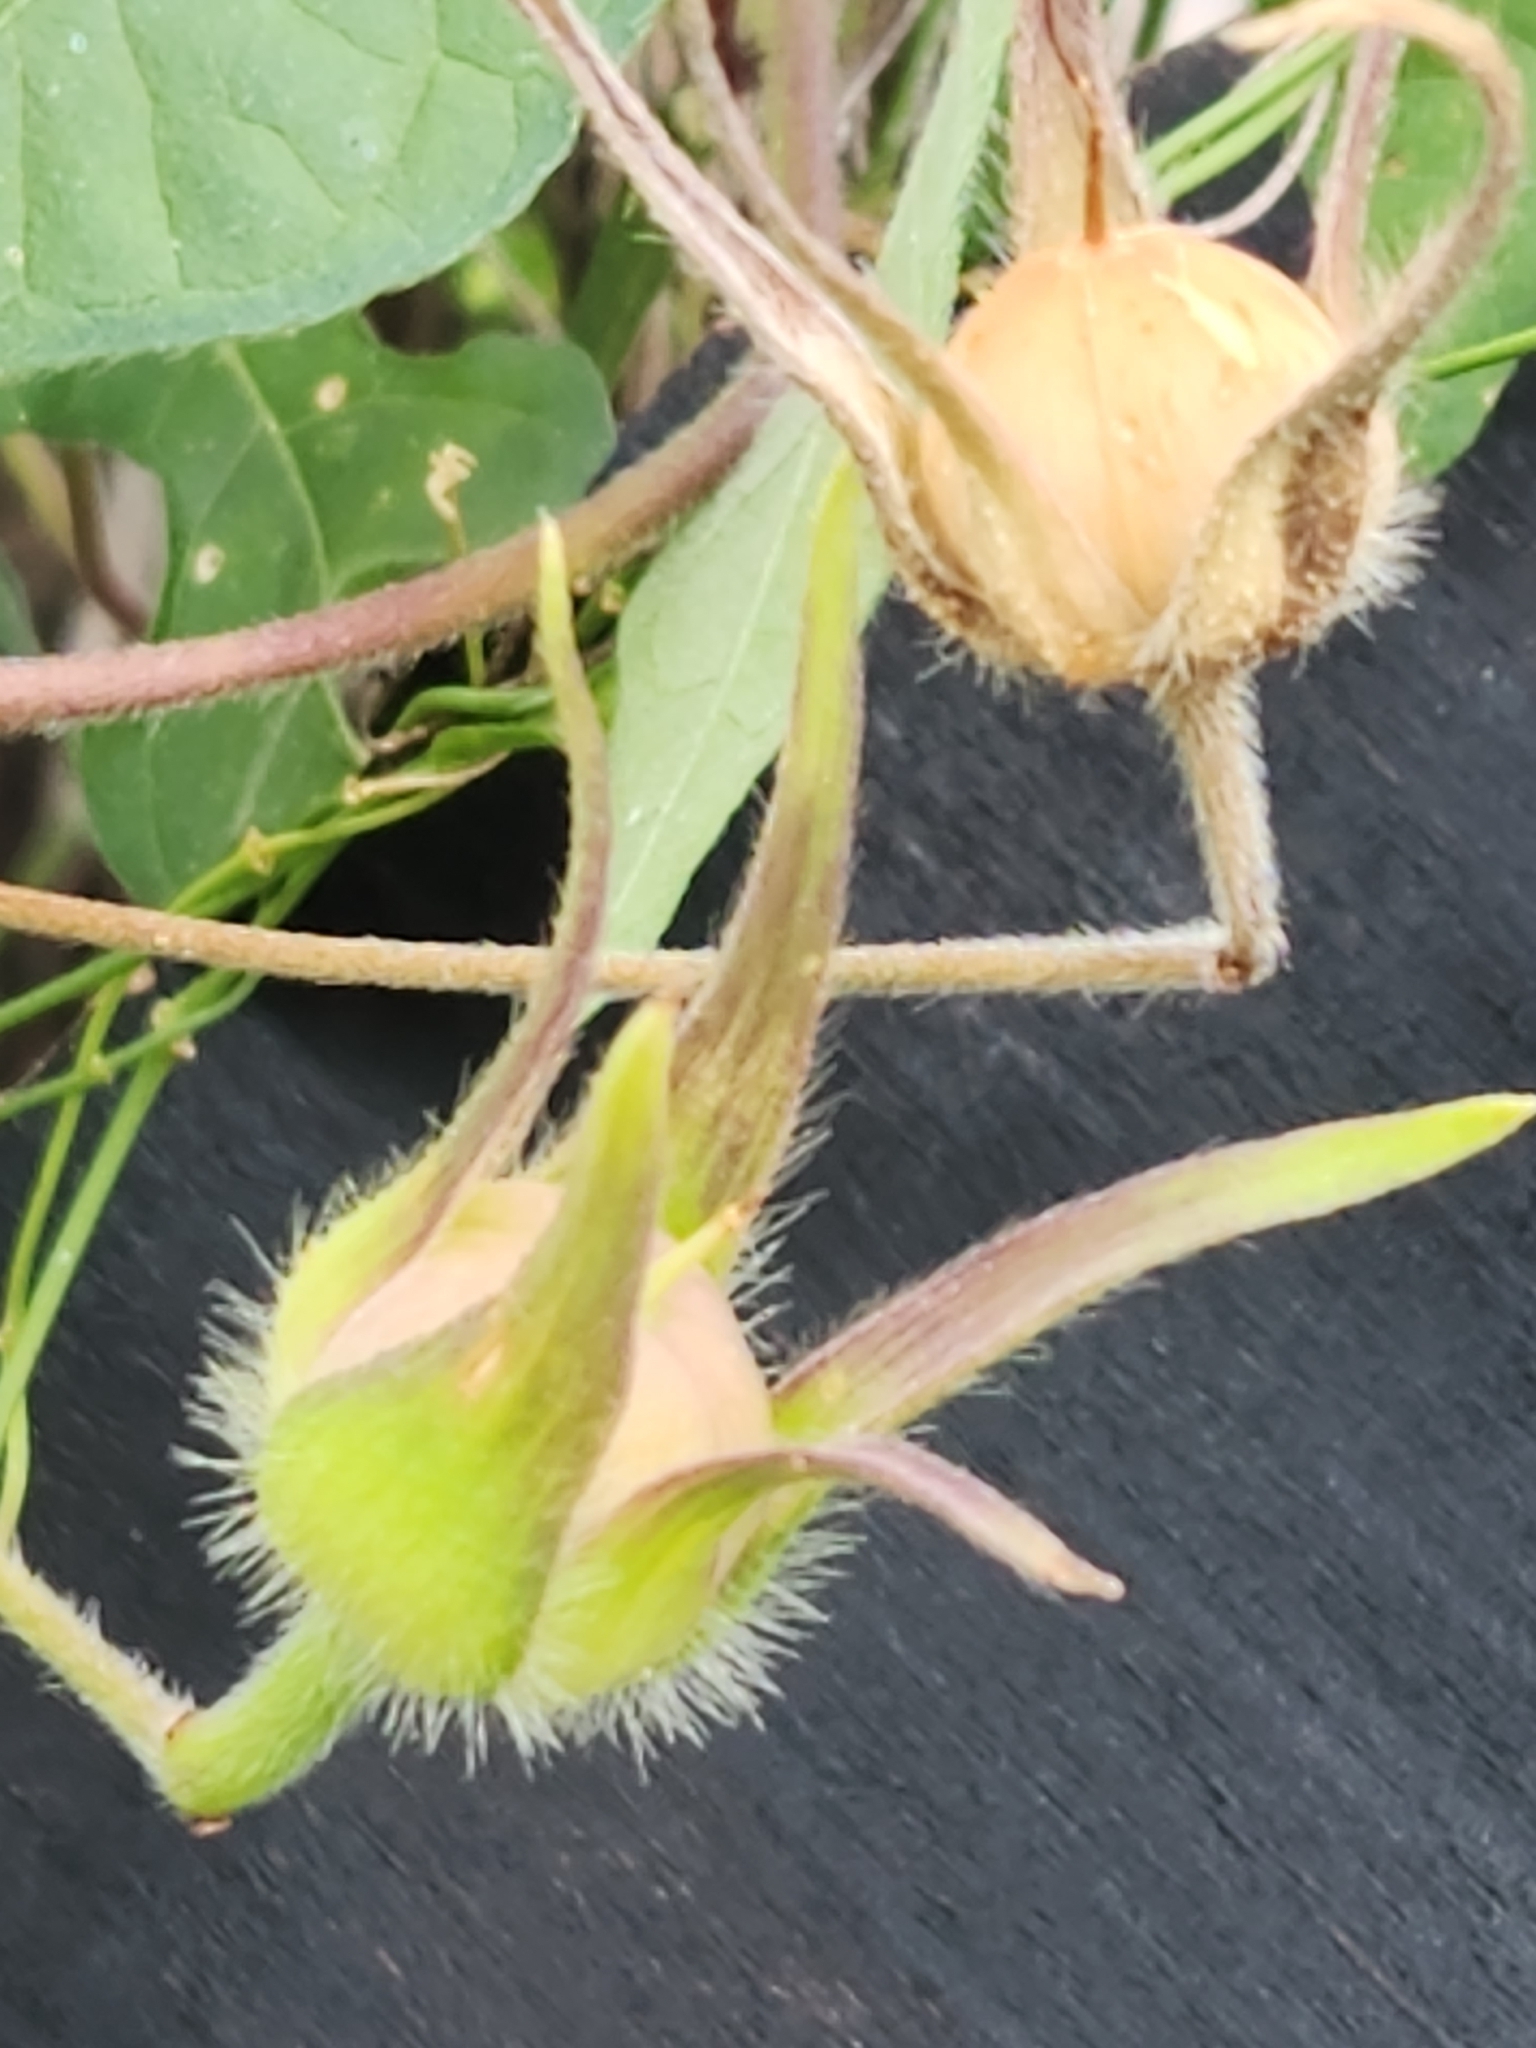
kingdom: Plantae
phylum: Tracheophyta
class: Magnoliopsida
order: Solanales
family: Convolvulaceae
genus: Ipomoea
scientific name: Ipomoea lindheimeri
